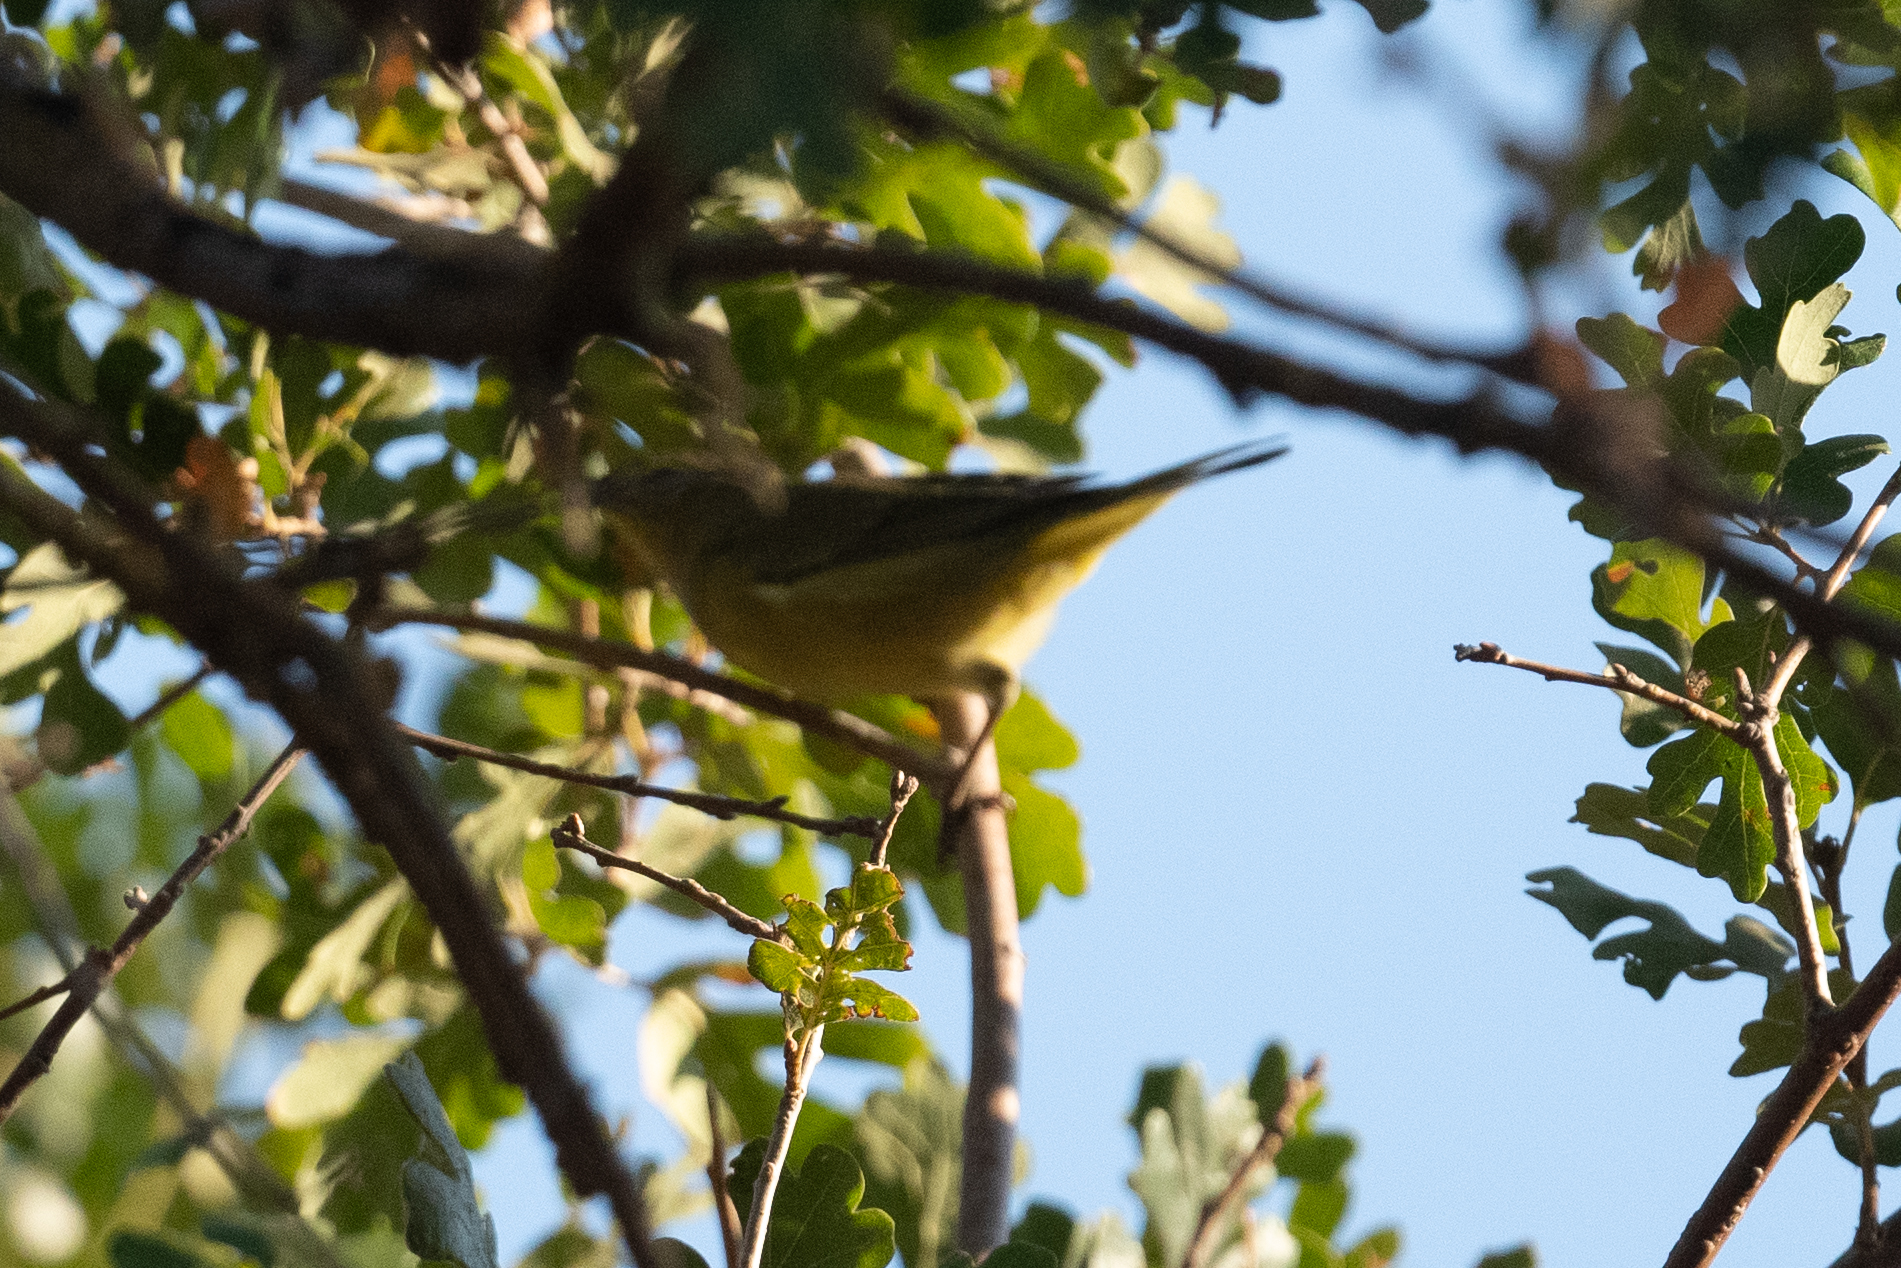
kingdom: Animalia
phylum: Chordata
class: Aves
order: Passeriformes
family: Parulidae
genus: Leiothlypis
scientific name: Leiothlypis celata
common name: Orange-crowned warbler
